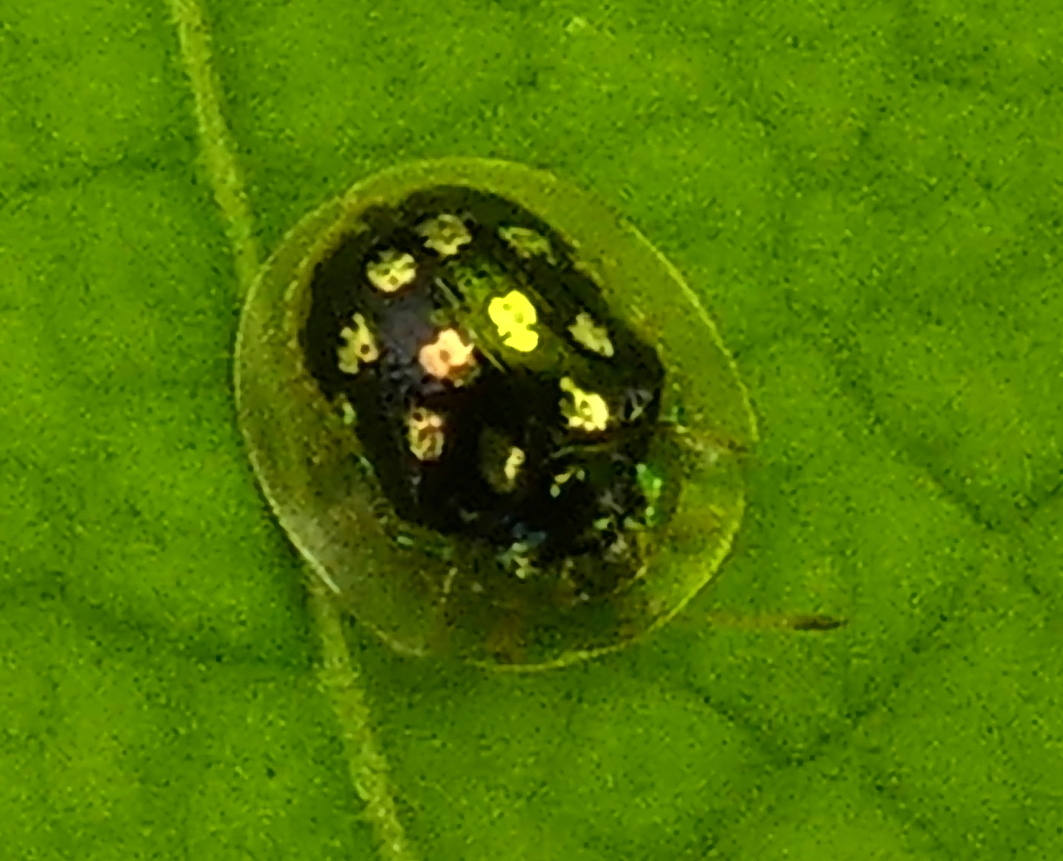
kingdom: Animalia
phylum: Arthropoda
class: Insecta
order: Coleoptera
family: Chrysomelidae
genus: Plagiometriona
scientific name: Plagiometriona microcera
